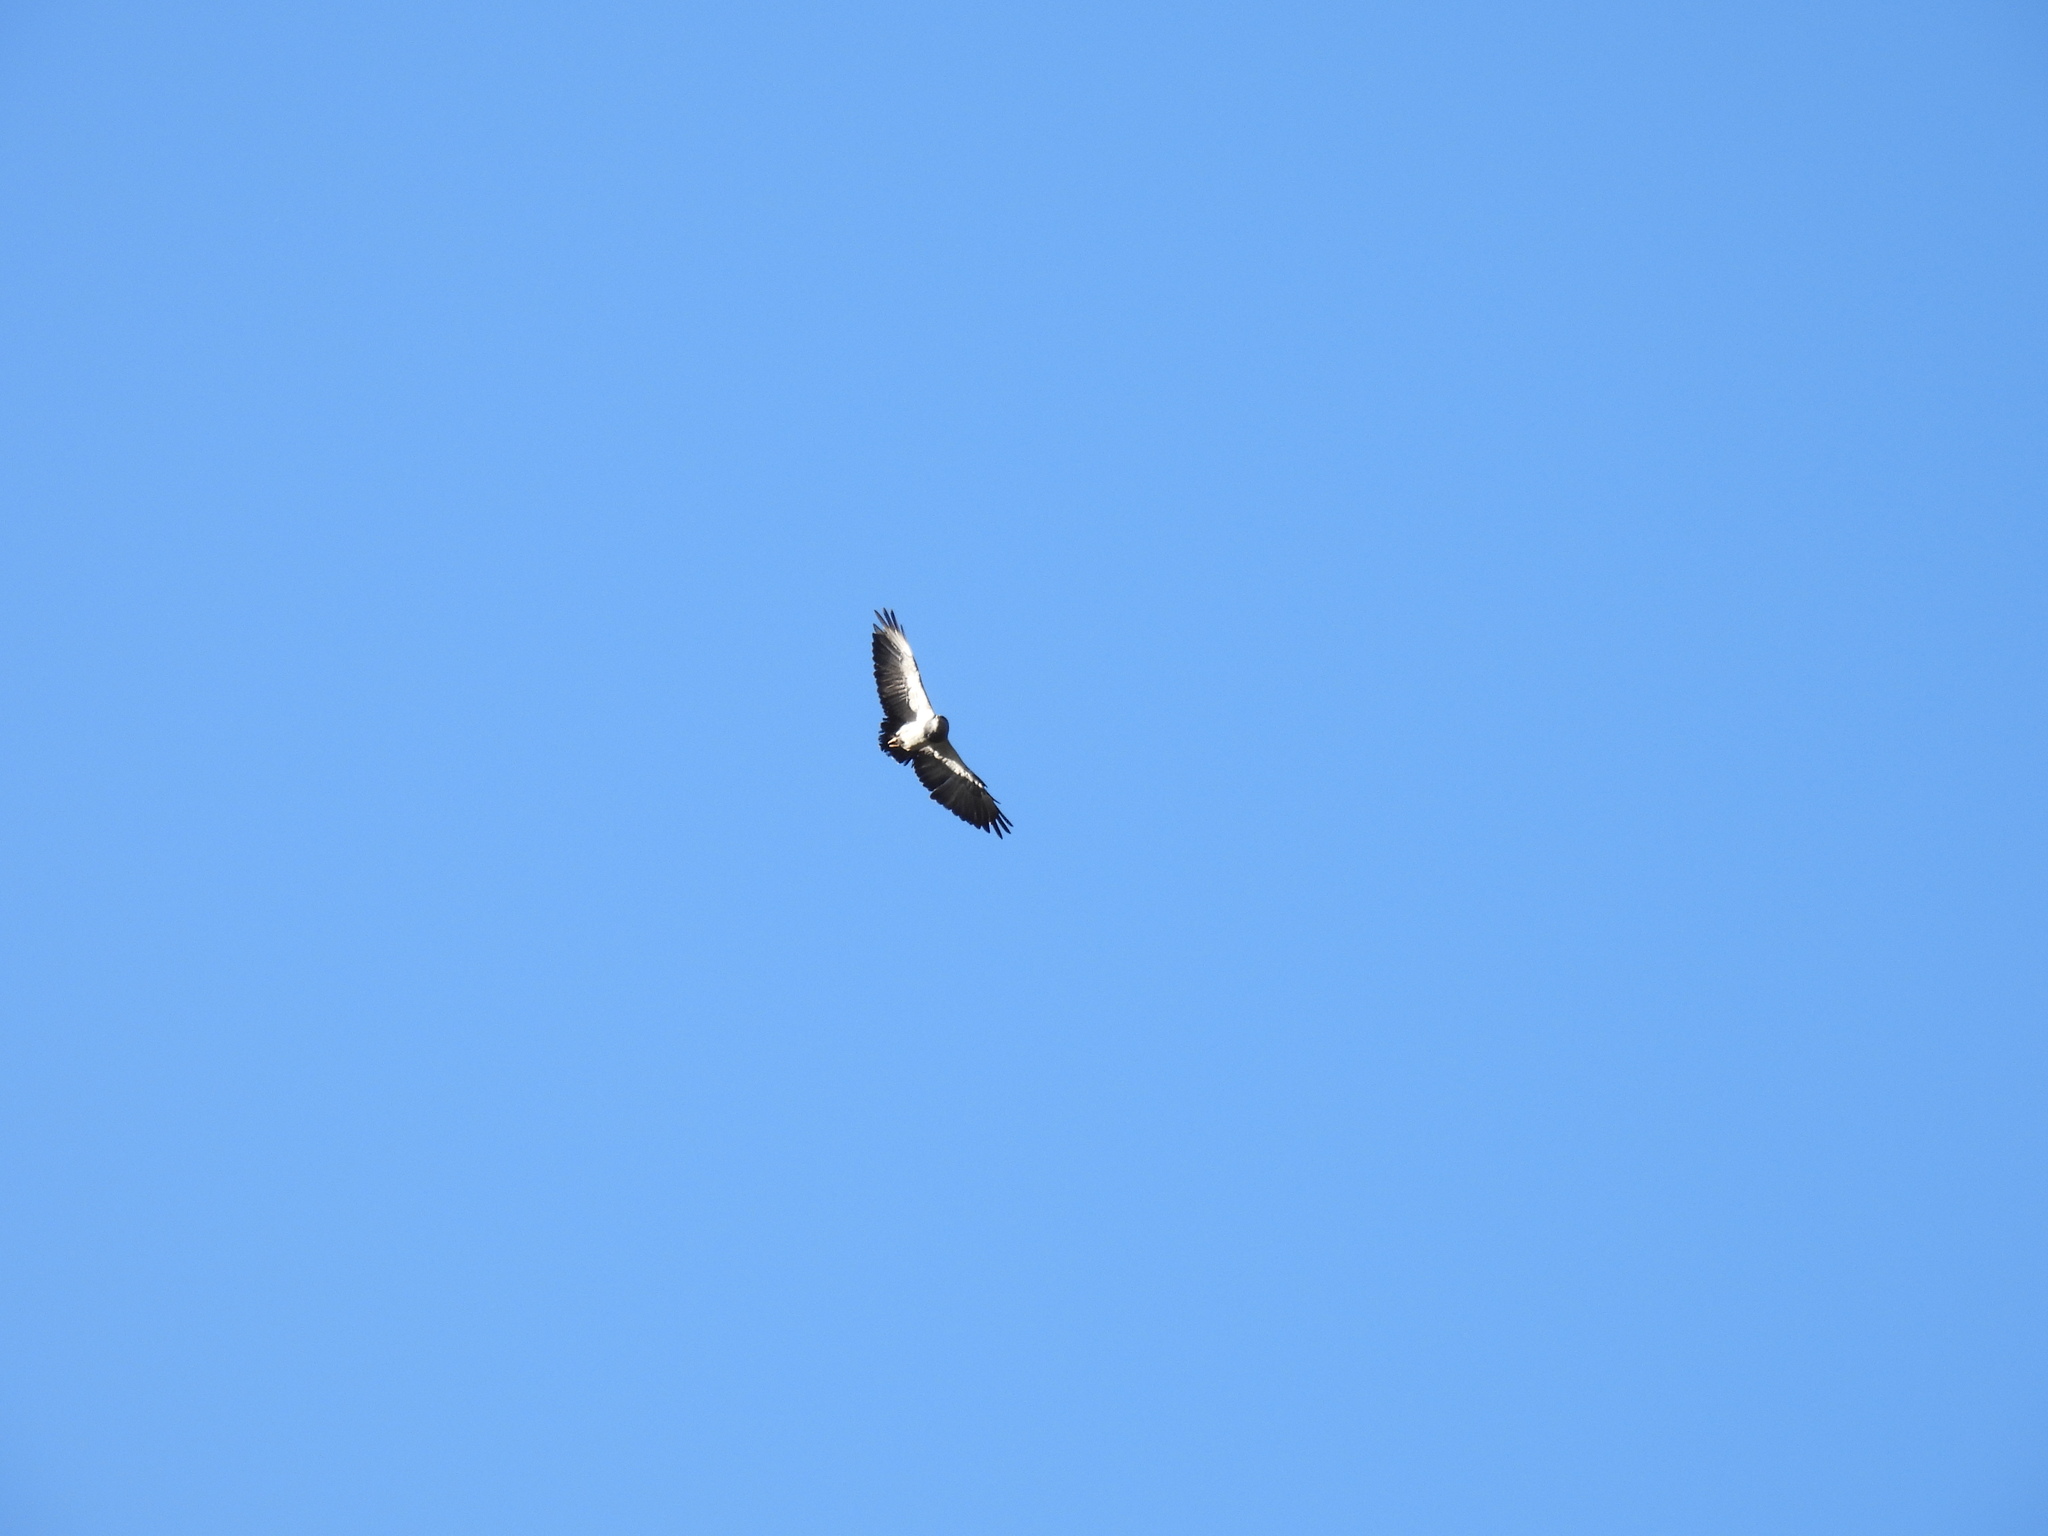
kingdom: Animalia
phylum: Chordata
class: Aves
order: Accipitriformes
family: Accipitridae
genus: Geranoaetus
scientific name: Geranoaetus melanoleucus
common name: Black-chested buzzard-eagle
